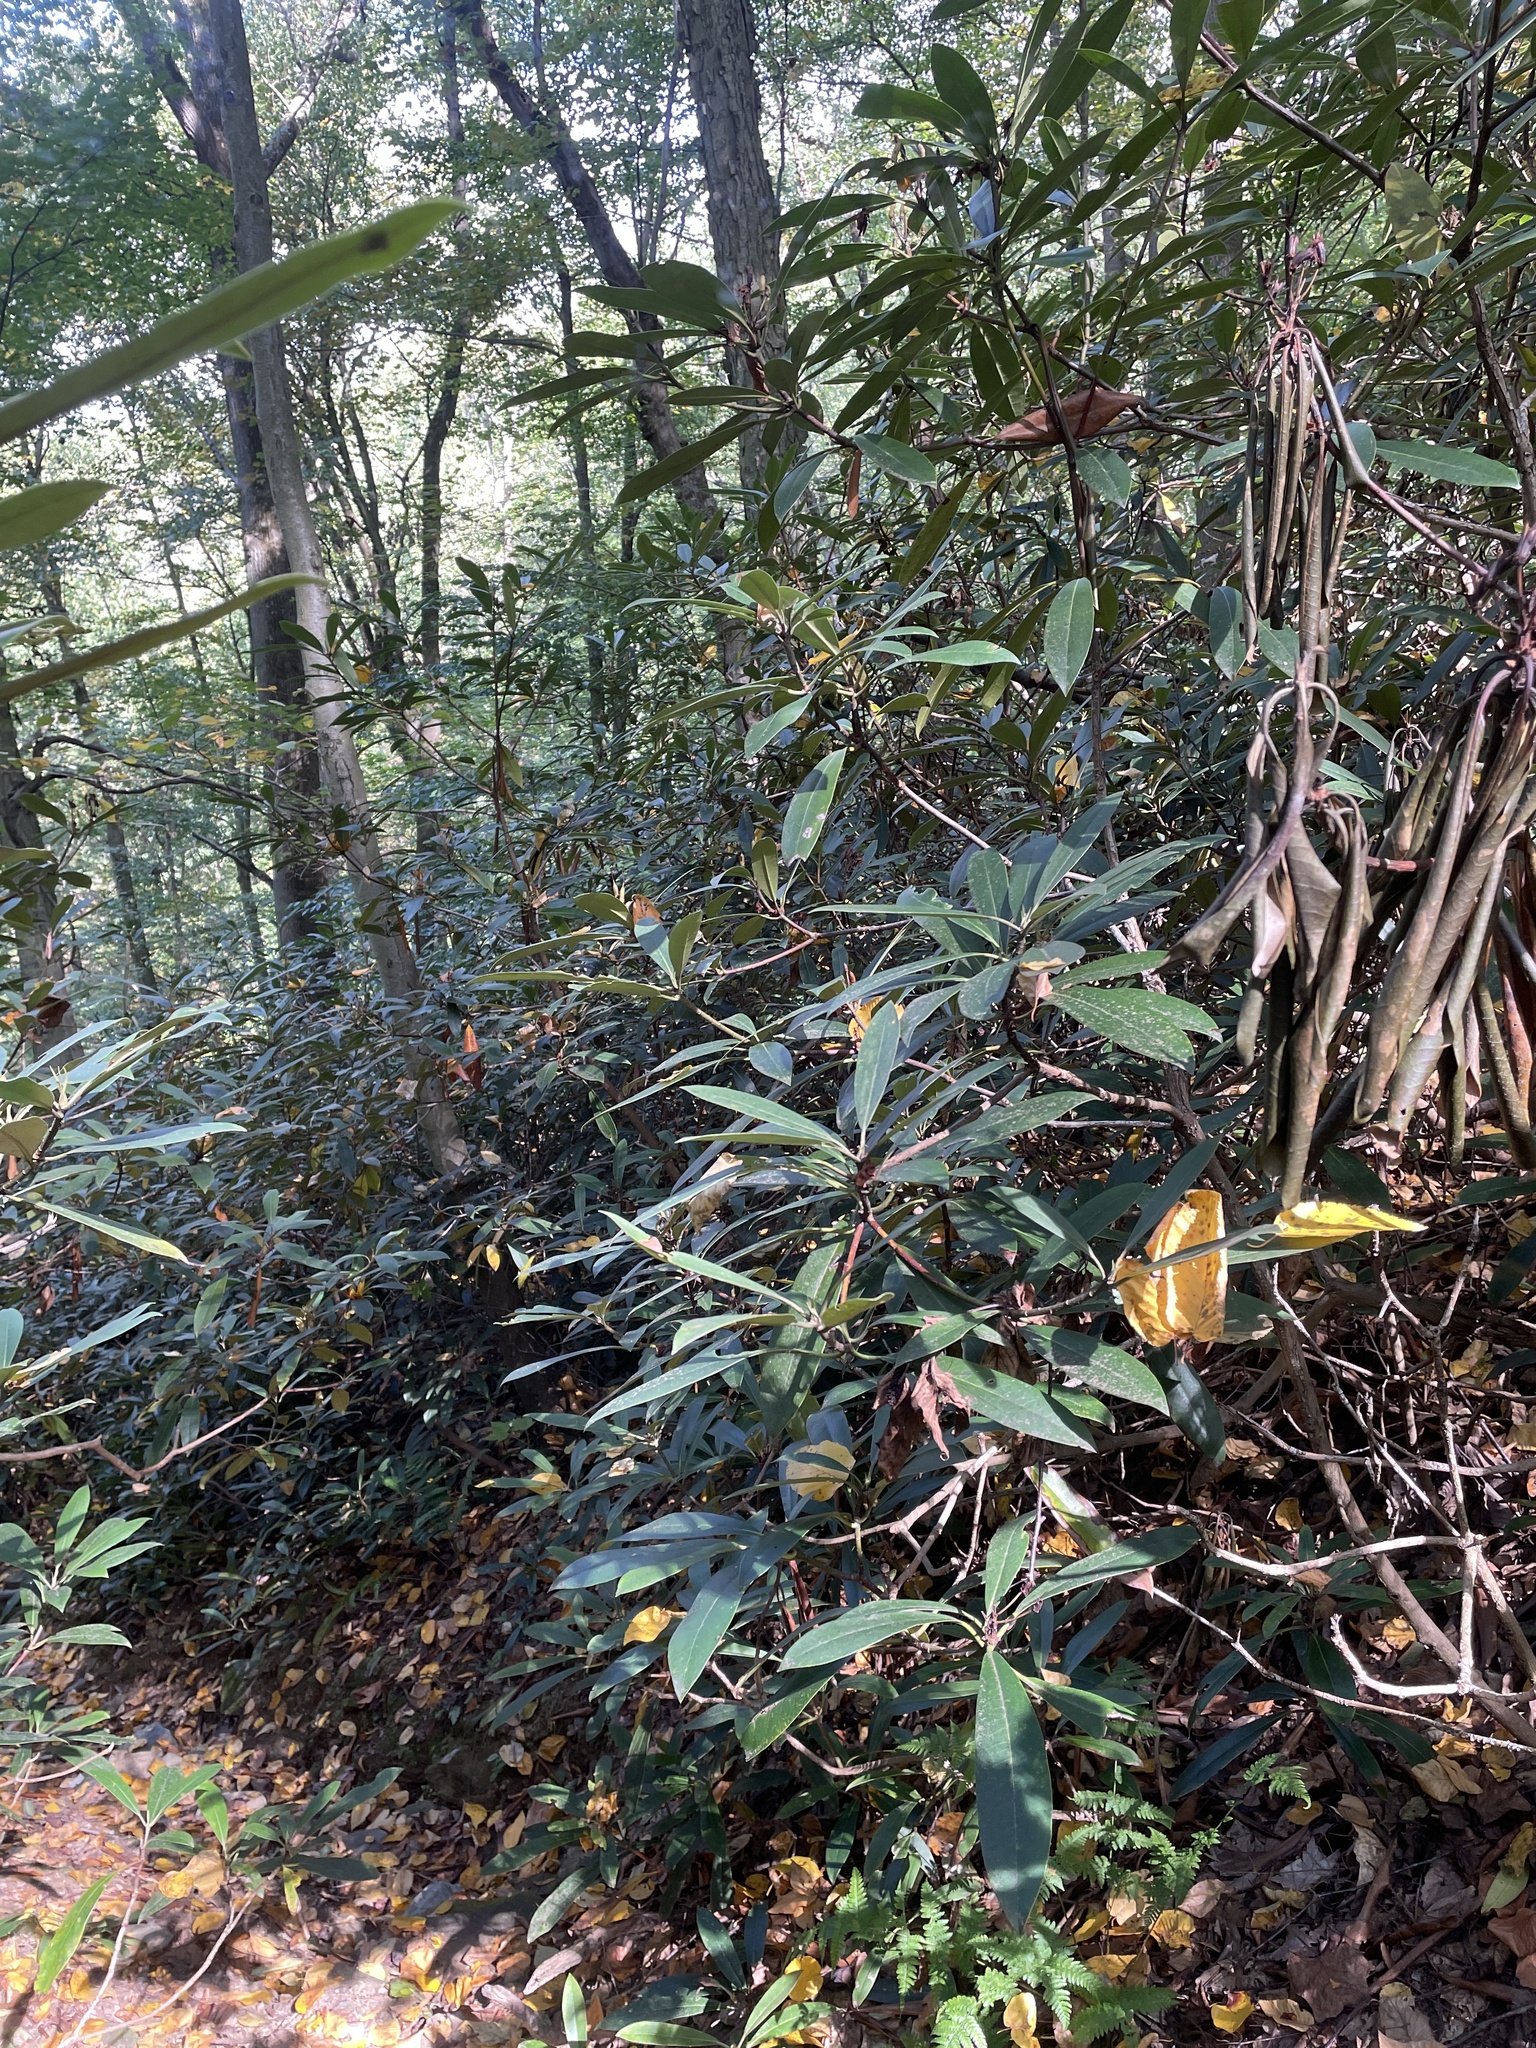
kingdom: Plantae
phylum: Tracheophyta
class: Magnoliopsida
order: Ericales
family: Ericaceae
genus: Rhododendron
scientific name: Rhododendron maximum
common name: Great rhododendron
